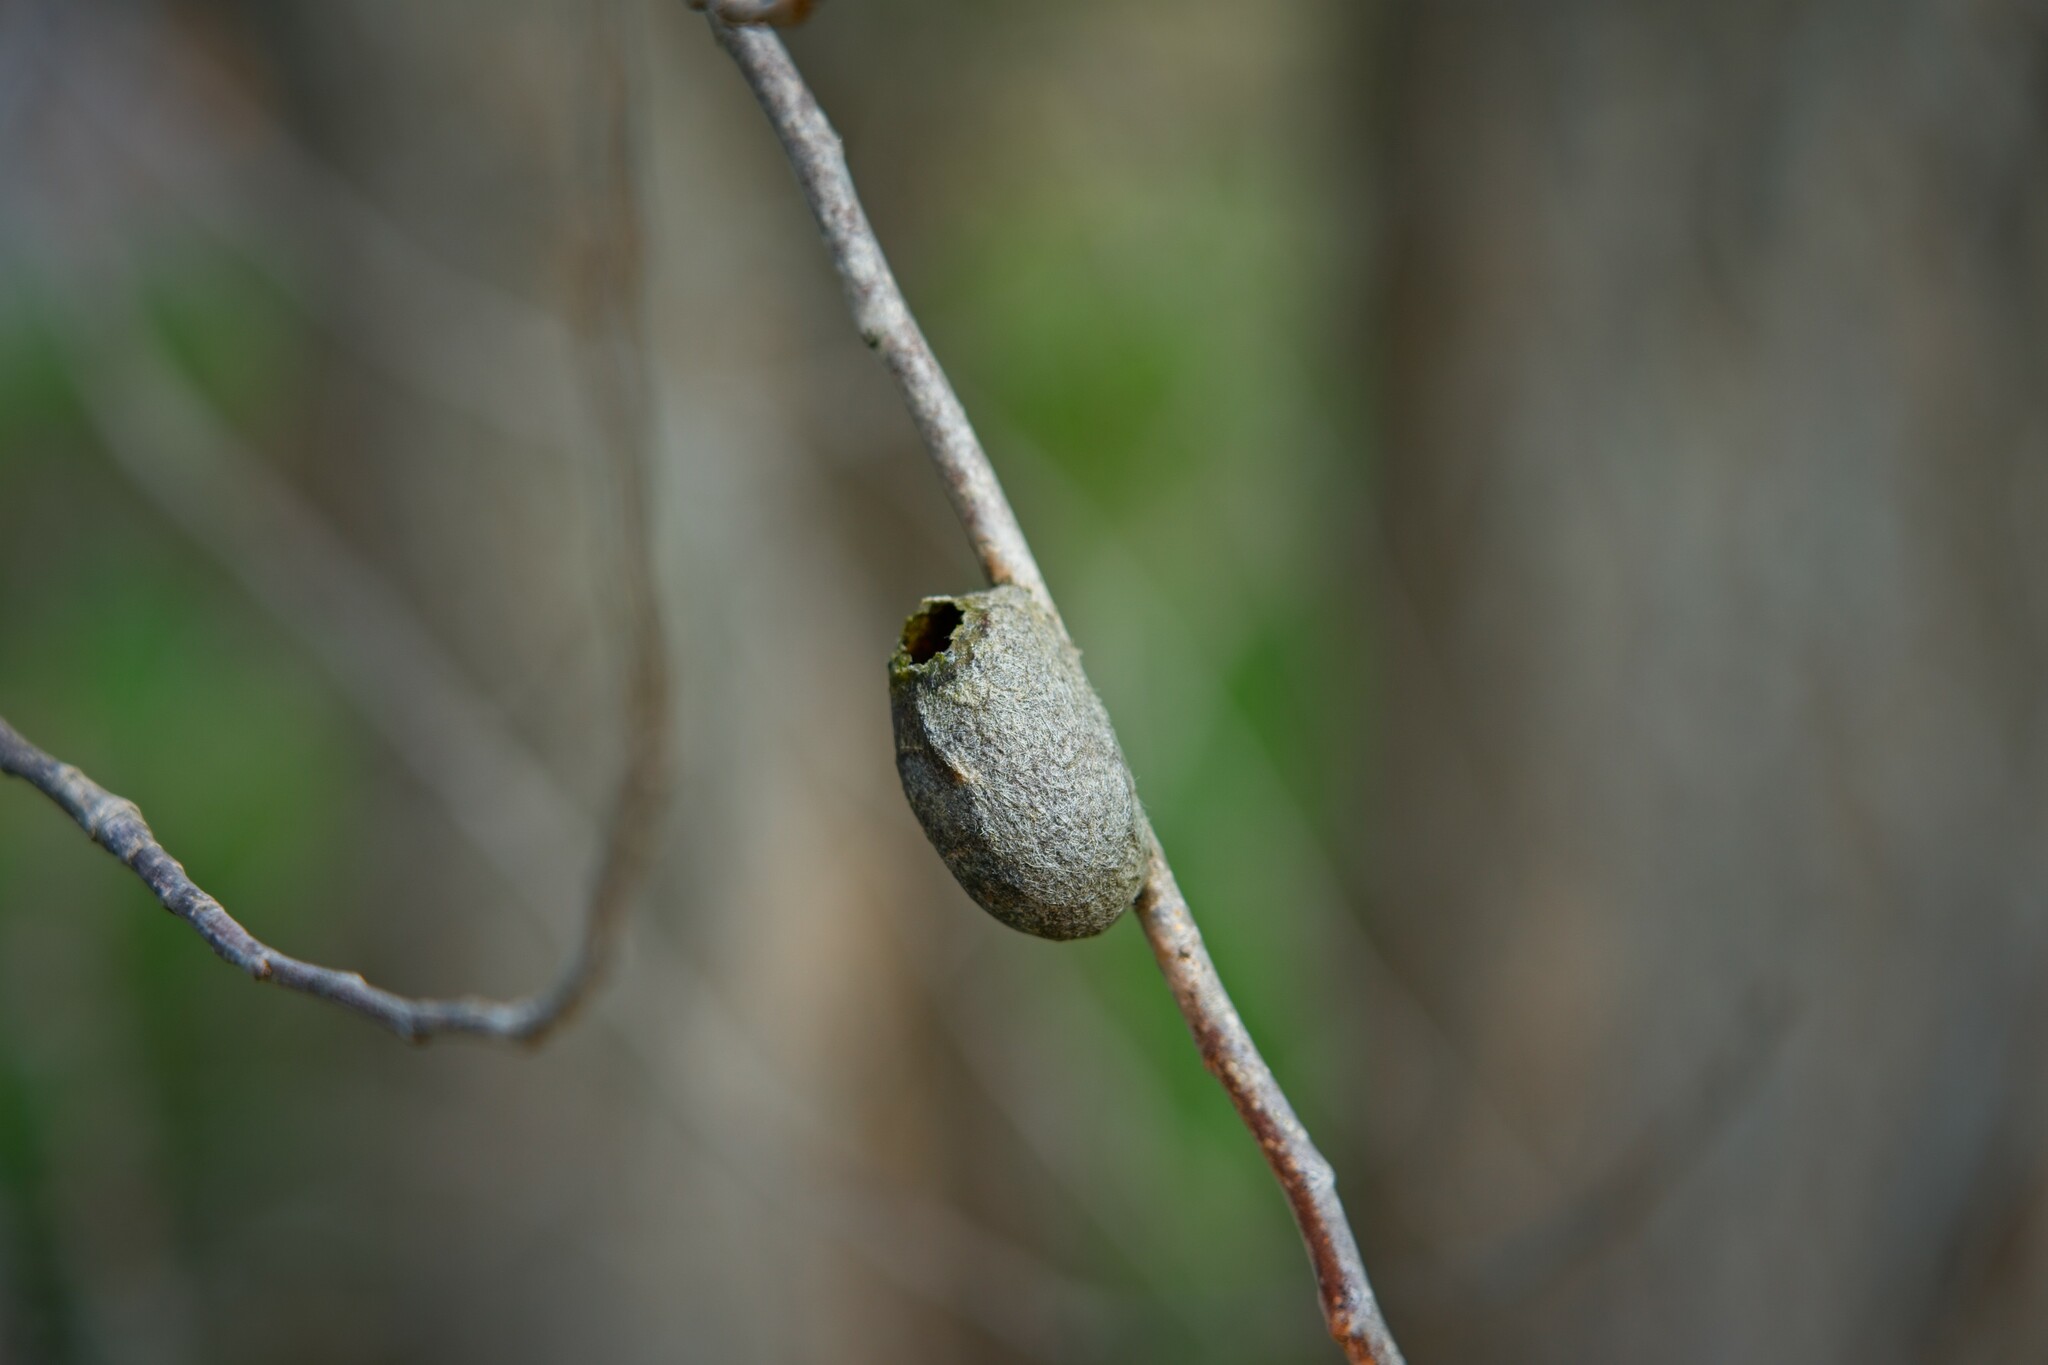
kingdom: Animalia
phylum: Arthropoda
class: Insecta
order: Lepidoptera
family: Saturniidae
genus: Opodiphthera
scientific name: Opodiphthera
